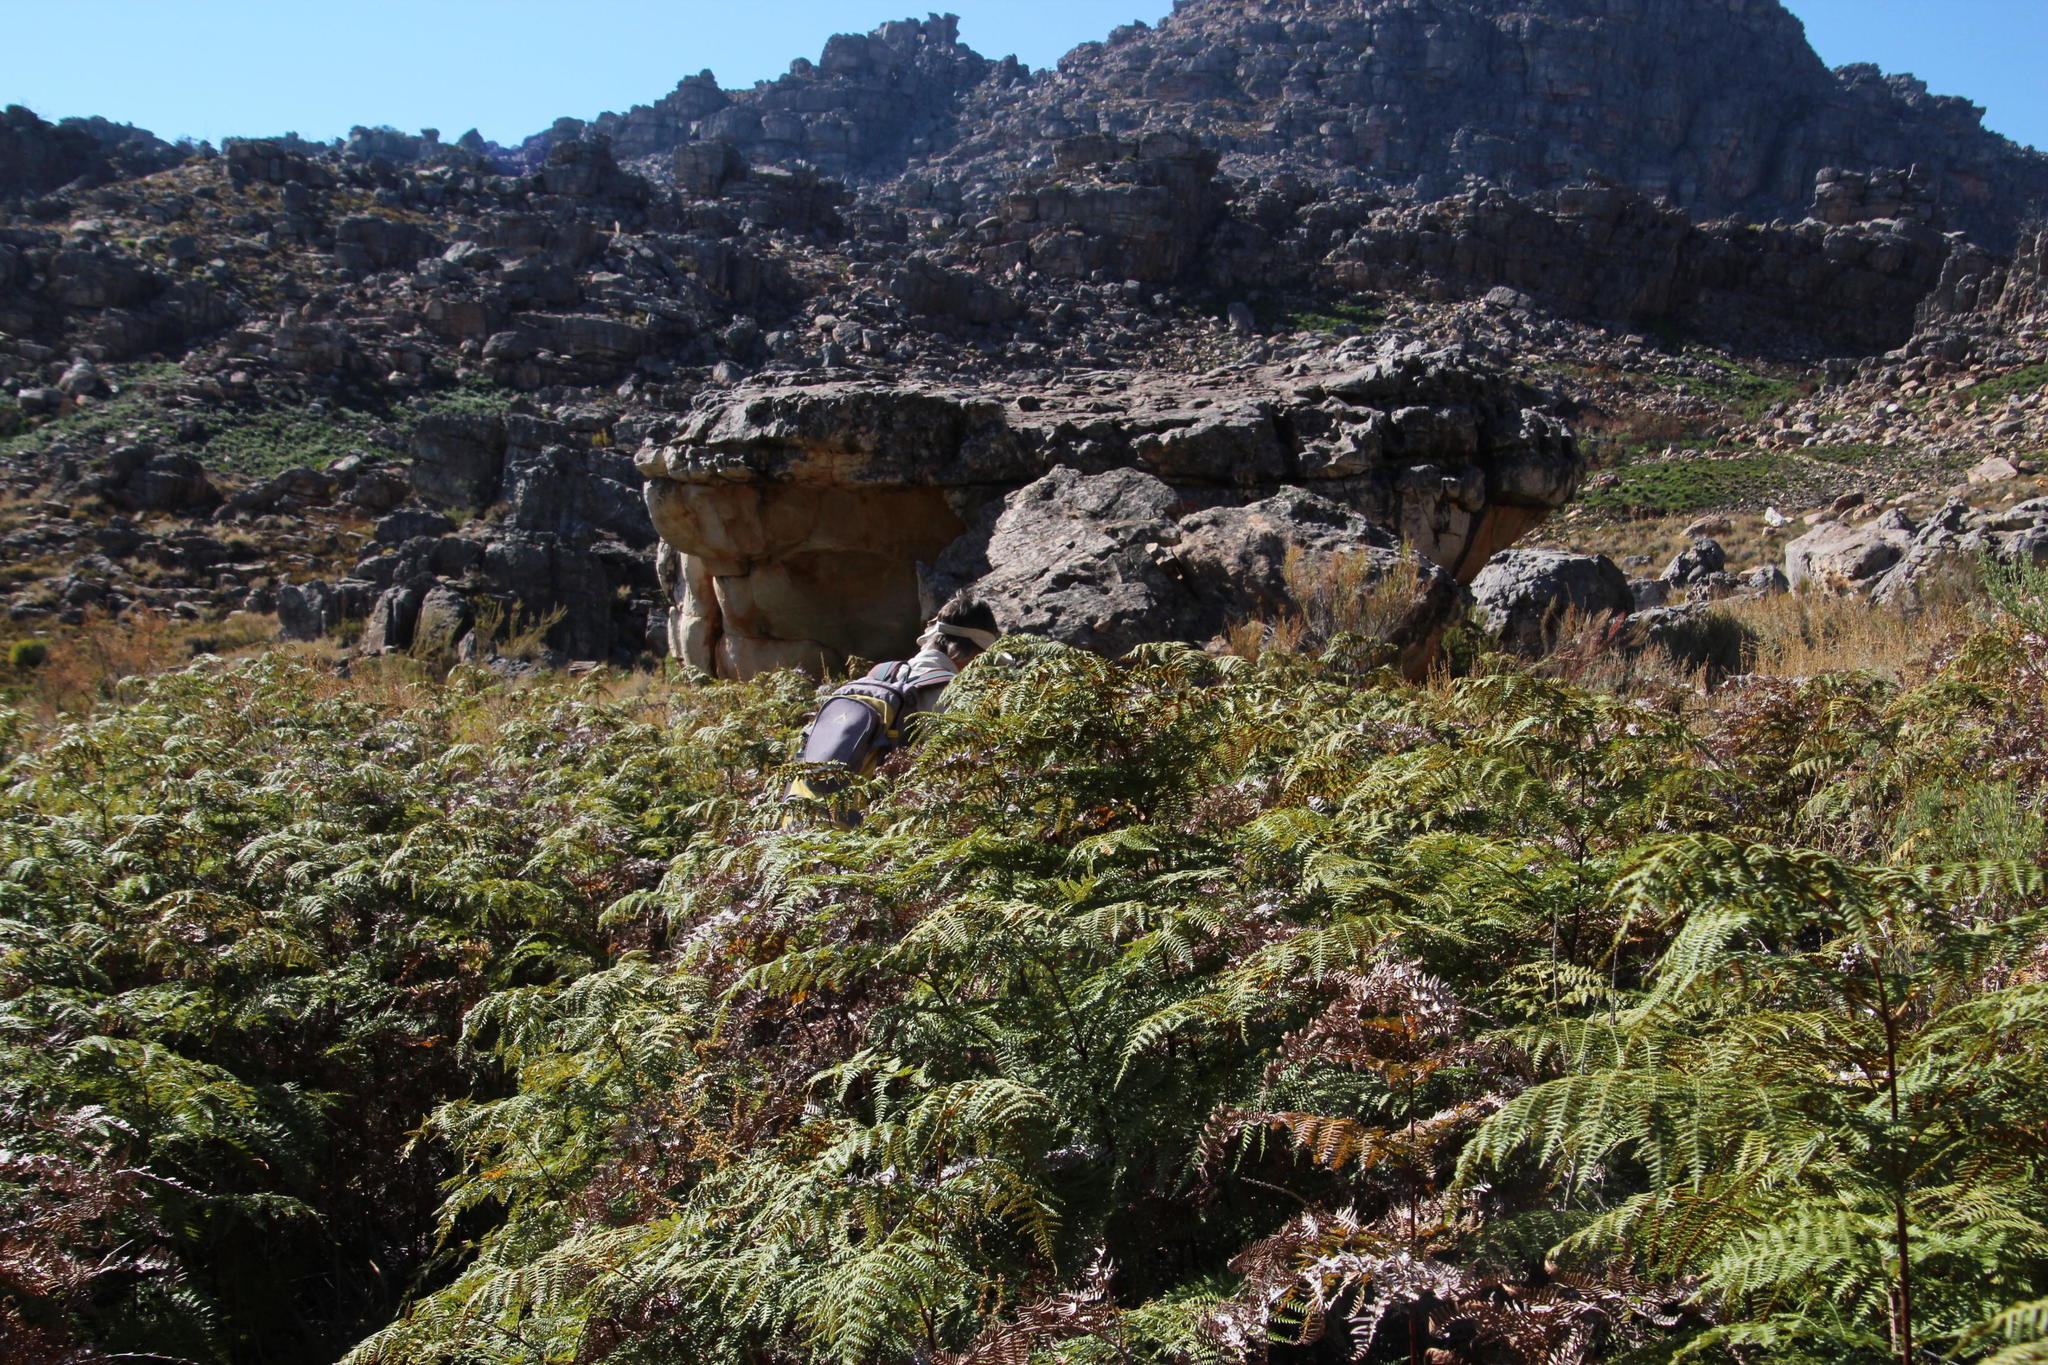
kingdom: Plantae
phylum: Tracheophyta
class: Polypodiopsida
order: Polypodiales
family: Dennstaedtiaceae
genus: Pteridium
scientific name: Pteridium aquilinum
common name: Bracken
